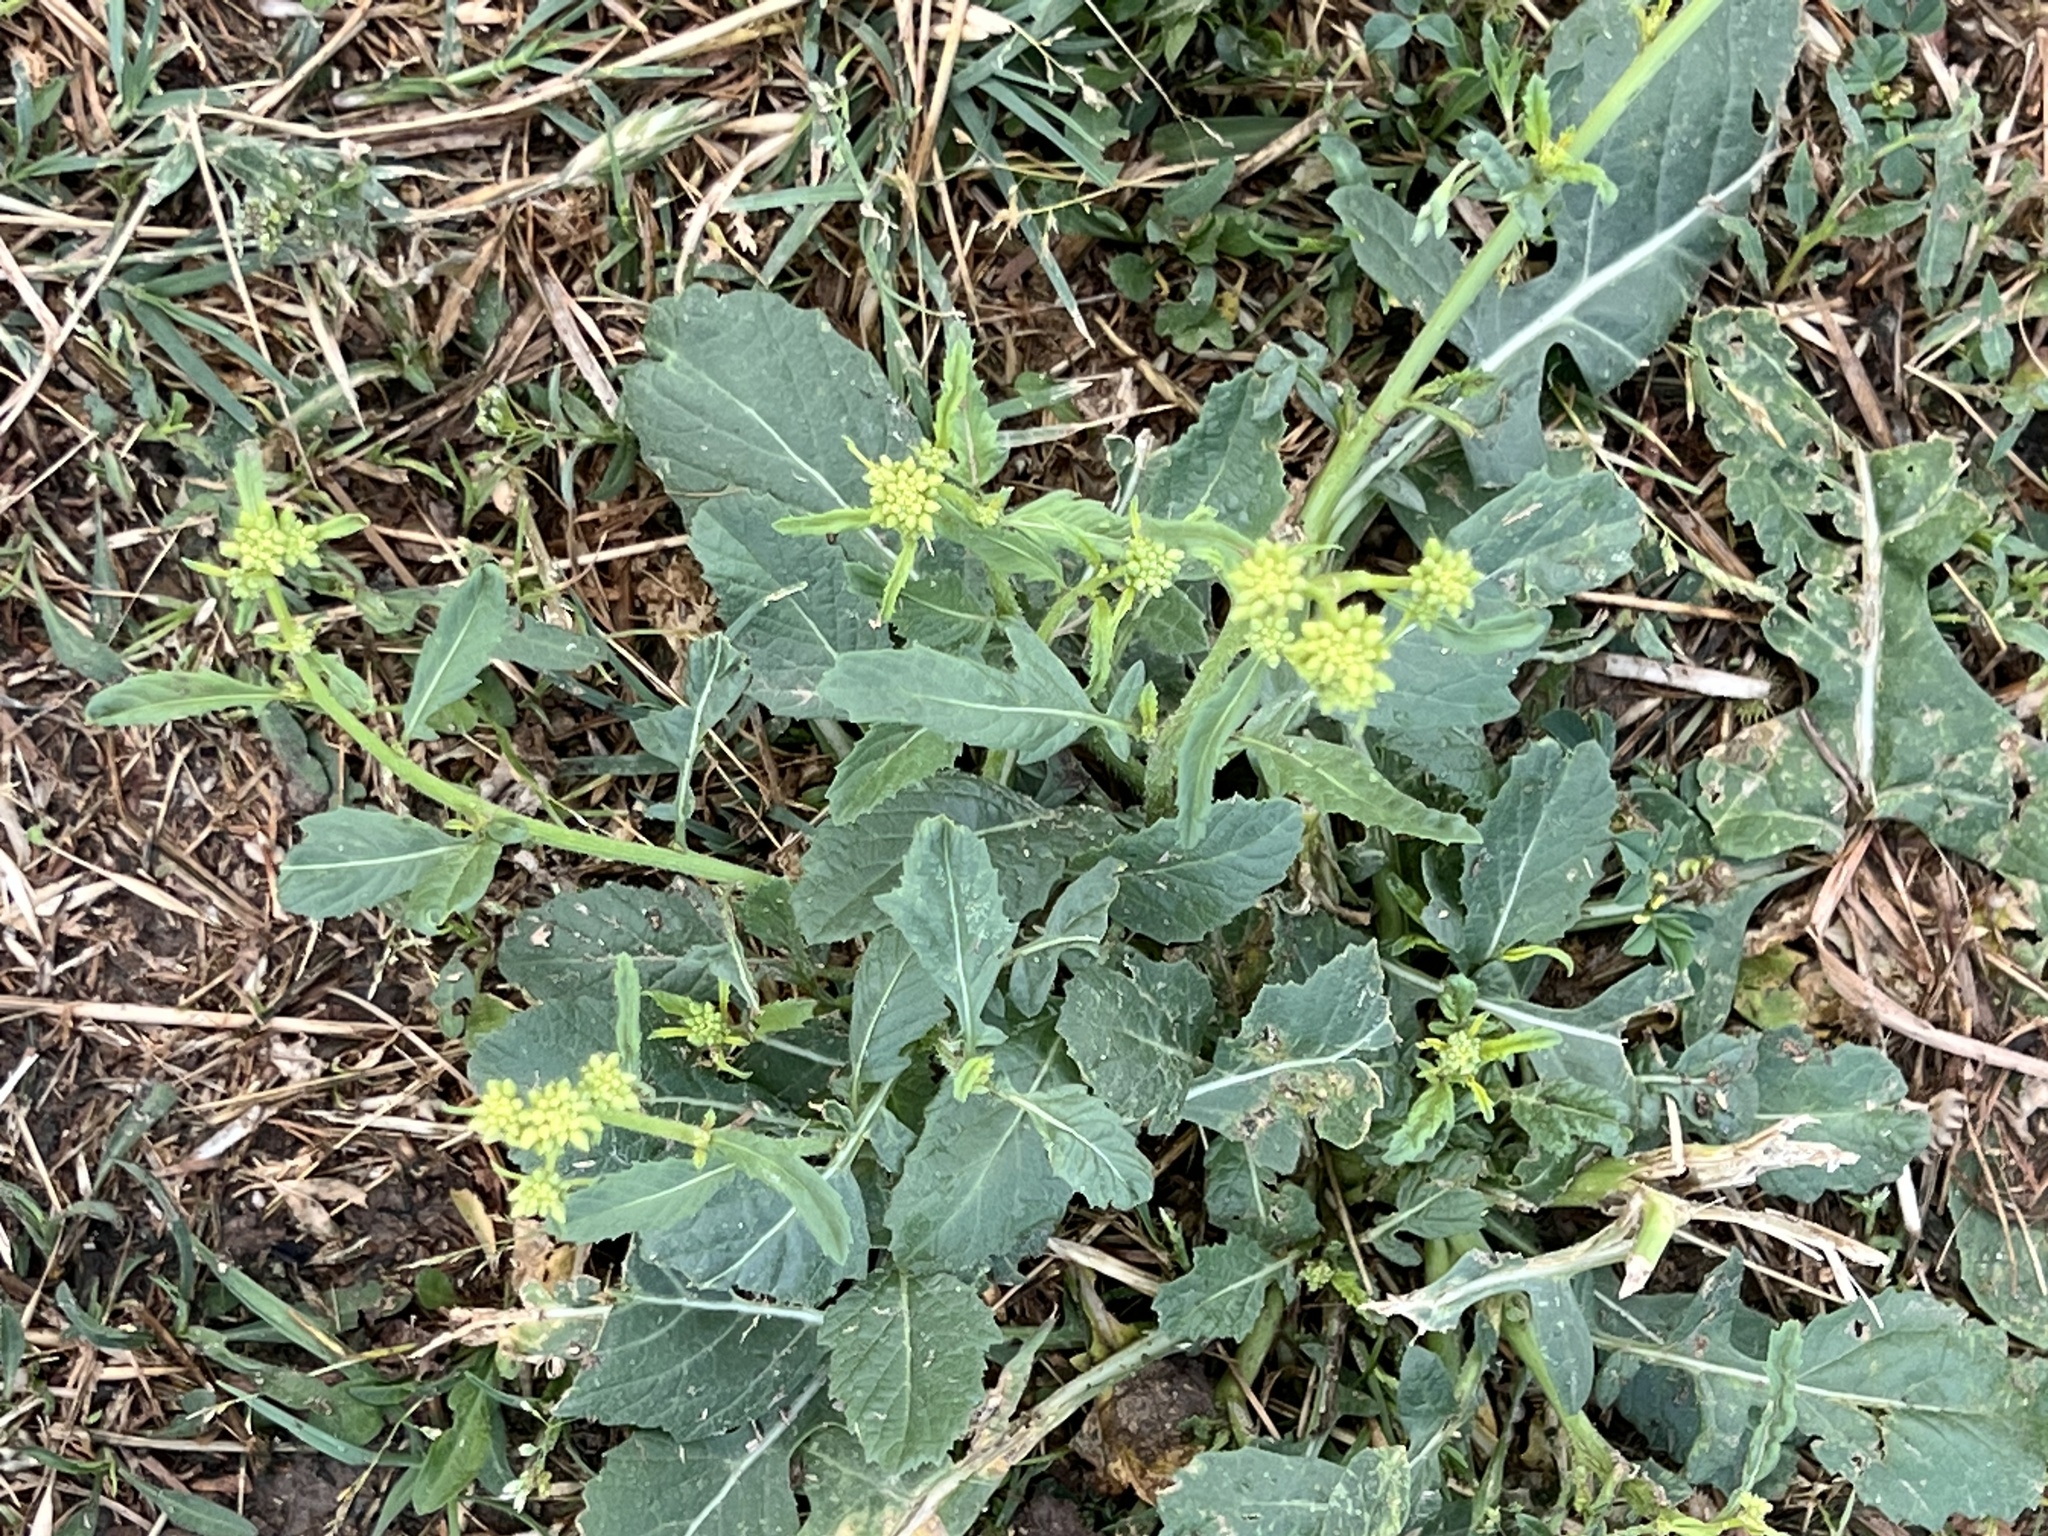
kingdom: Plantae
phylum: Tracheophyta
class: Magnoliopsida
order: Brassicales
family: Brassicaceae
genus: Rapistrum
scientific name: Rapistrum rugosum
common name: Annual bastardcabbage
